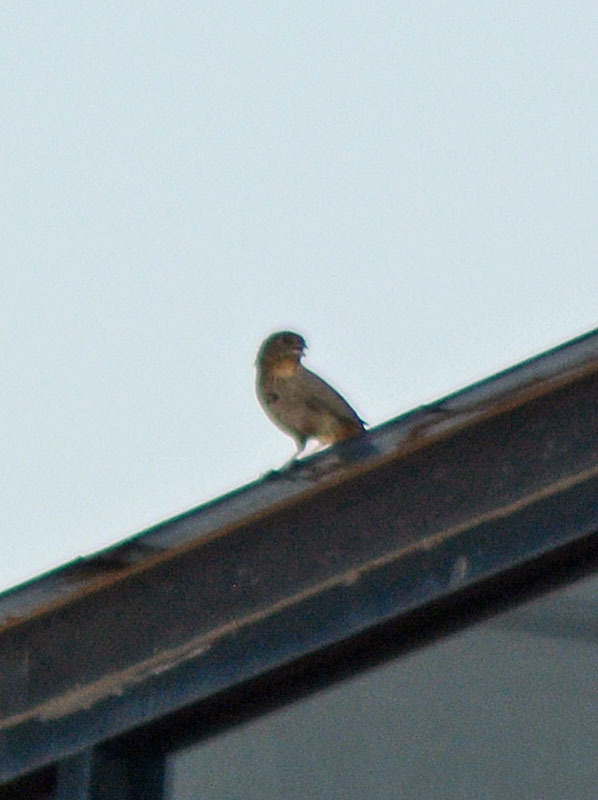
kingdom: Animalia
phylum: Chordata
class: Aves
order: Passeriformes
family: Passerellidae
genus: Melozone
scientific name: Melozone fusca
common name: Canyon towhee
